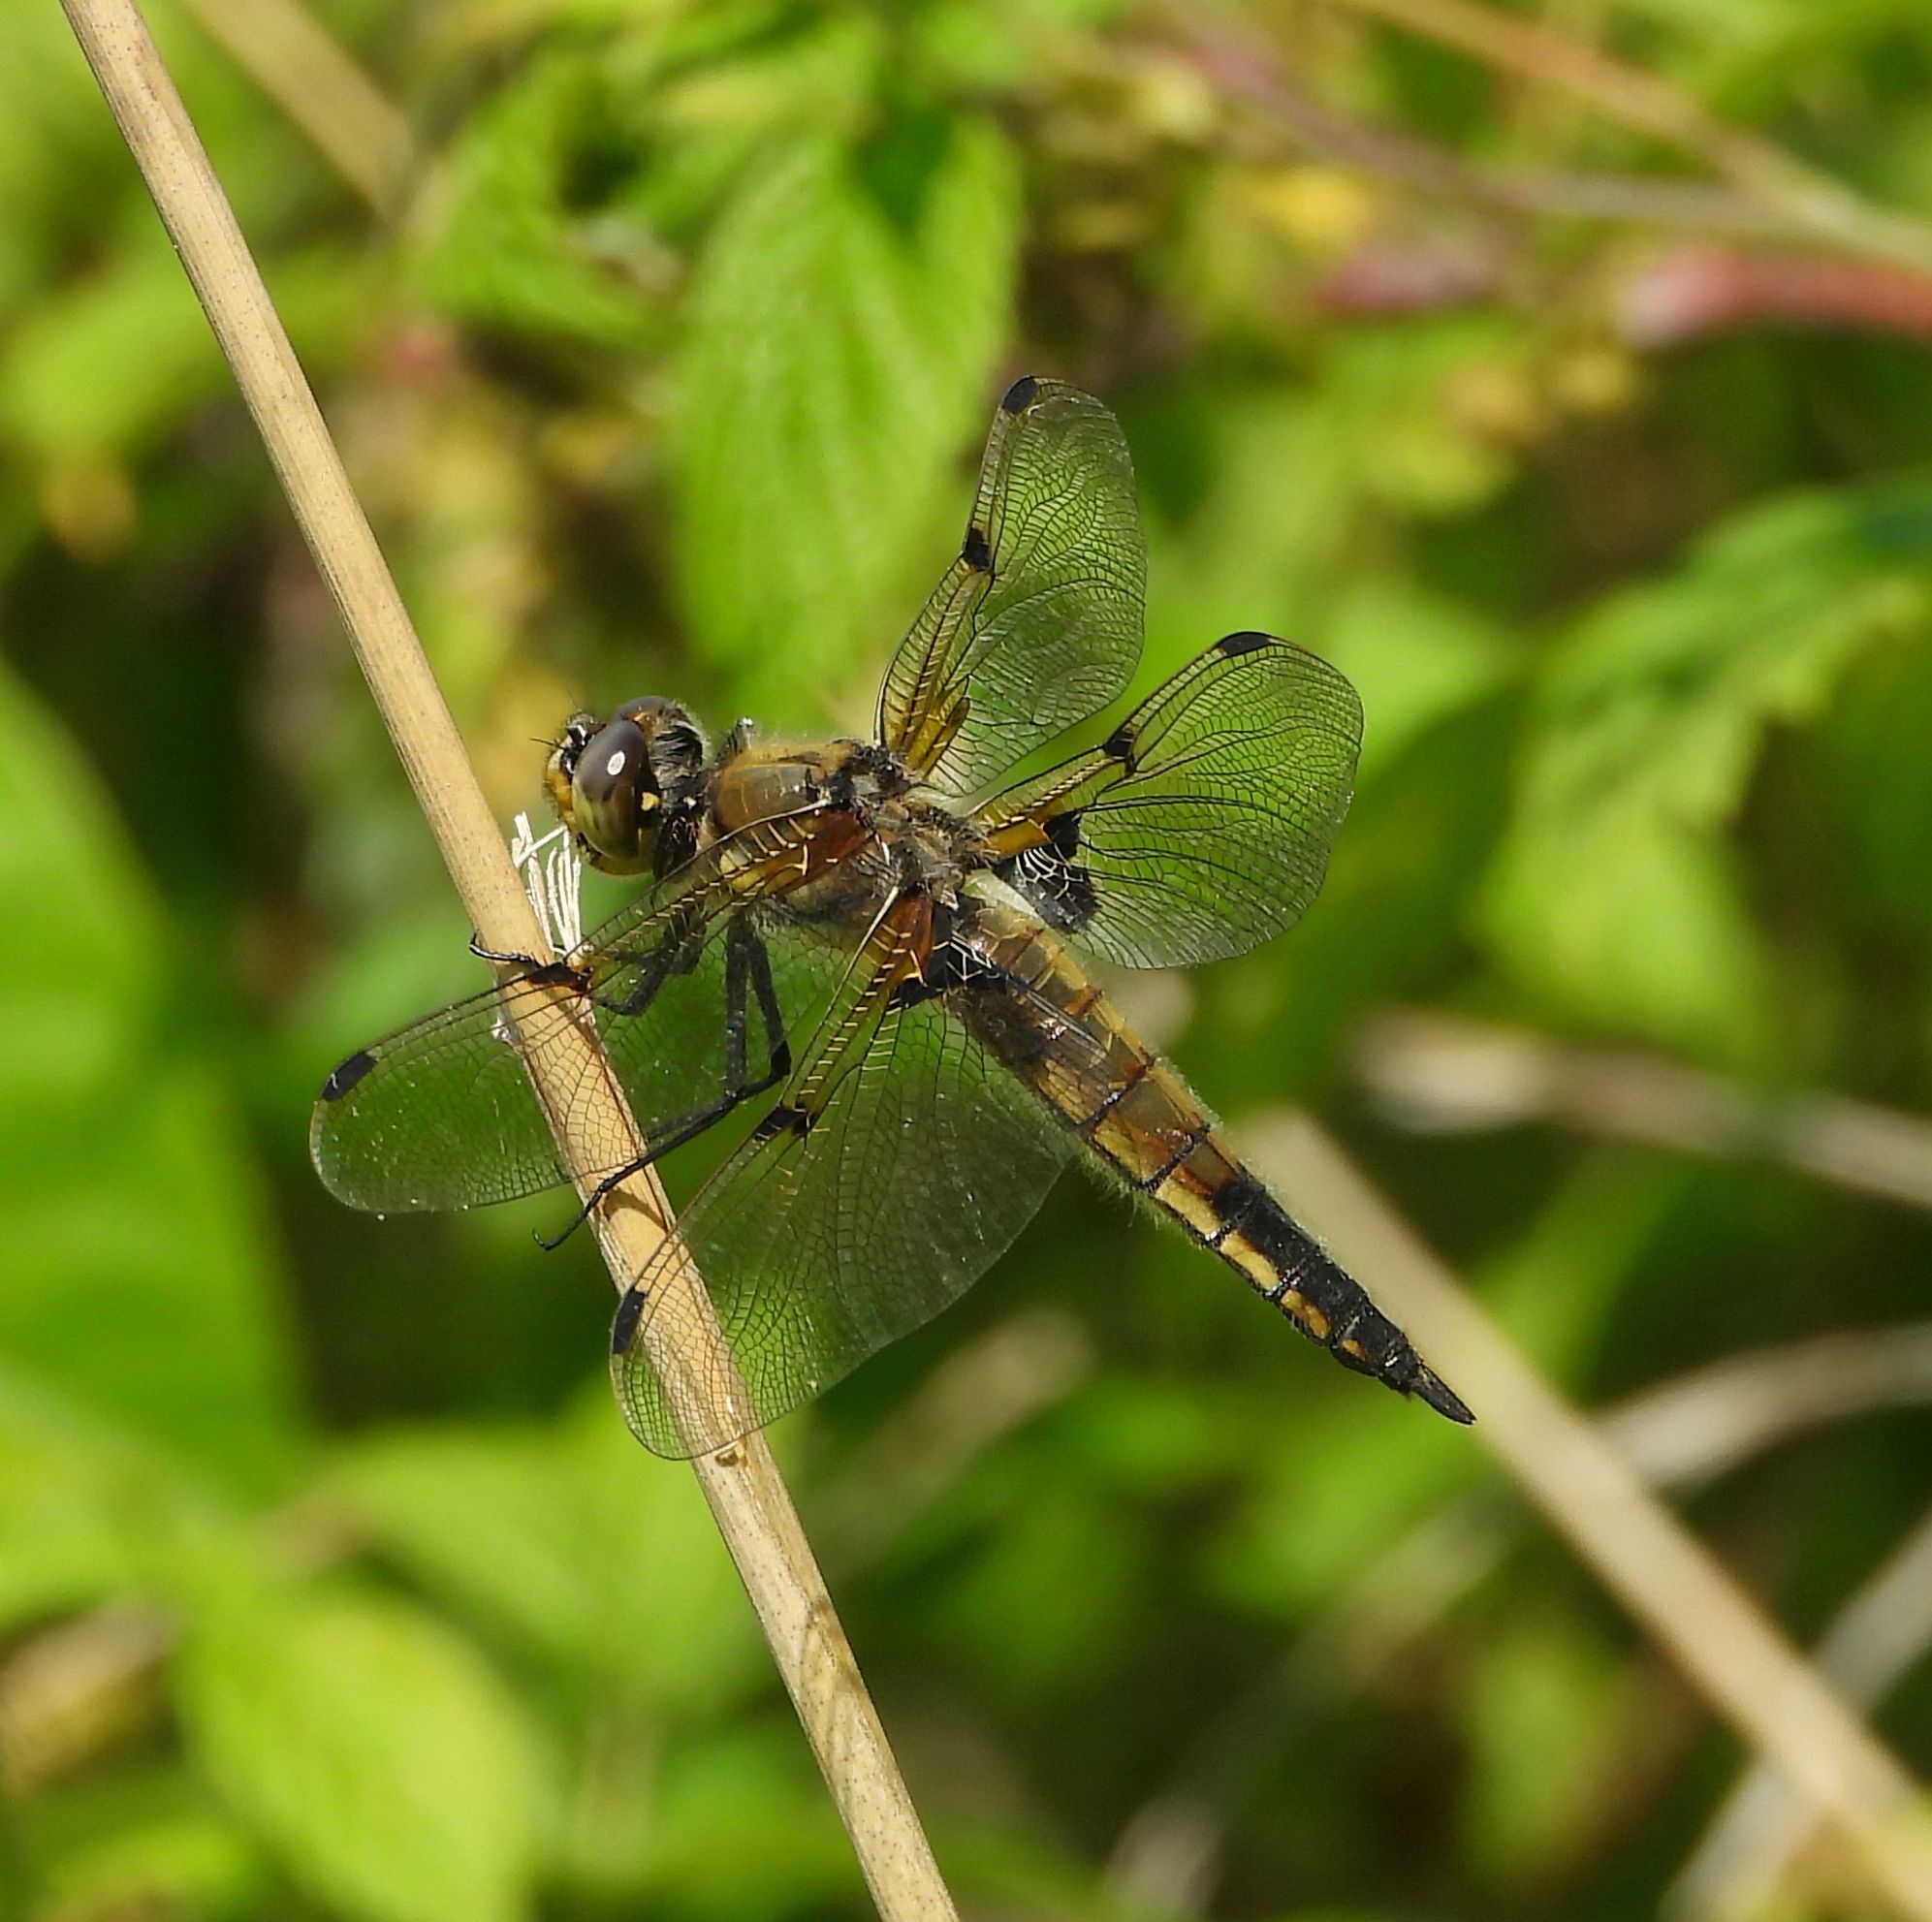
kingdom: Animalia
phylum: Arthropoda
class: Insecta
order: Odonata
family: Libellulidae
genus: Libellula
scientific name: Libellula quadrimaculata
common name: Four-spotted chaser
